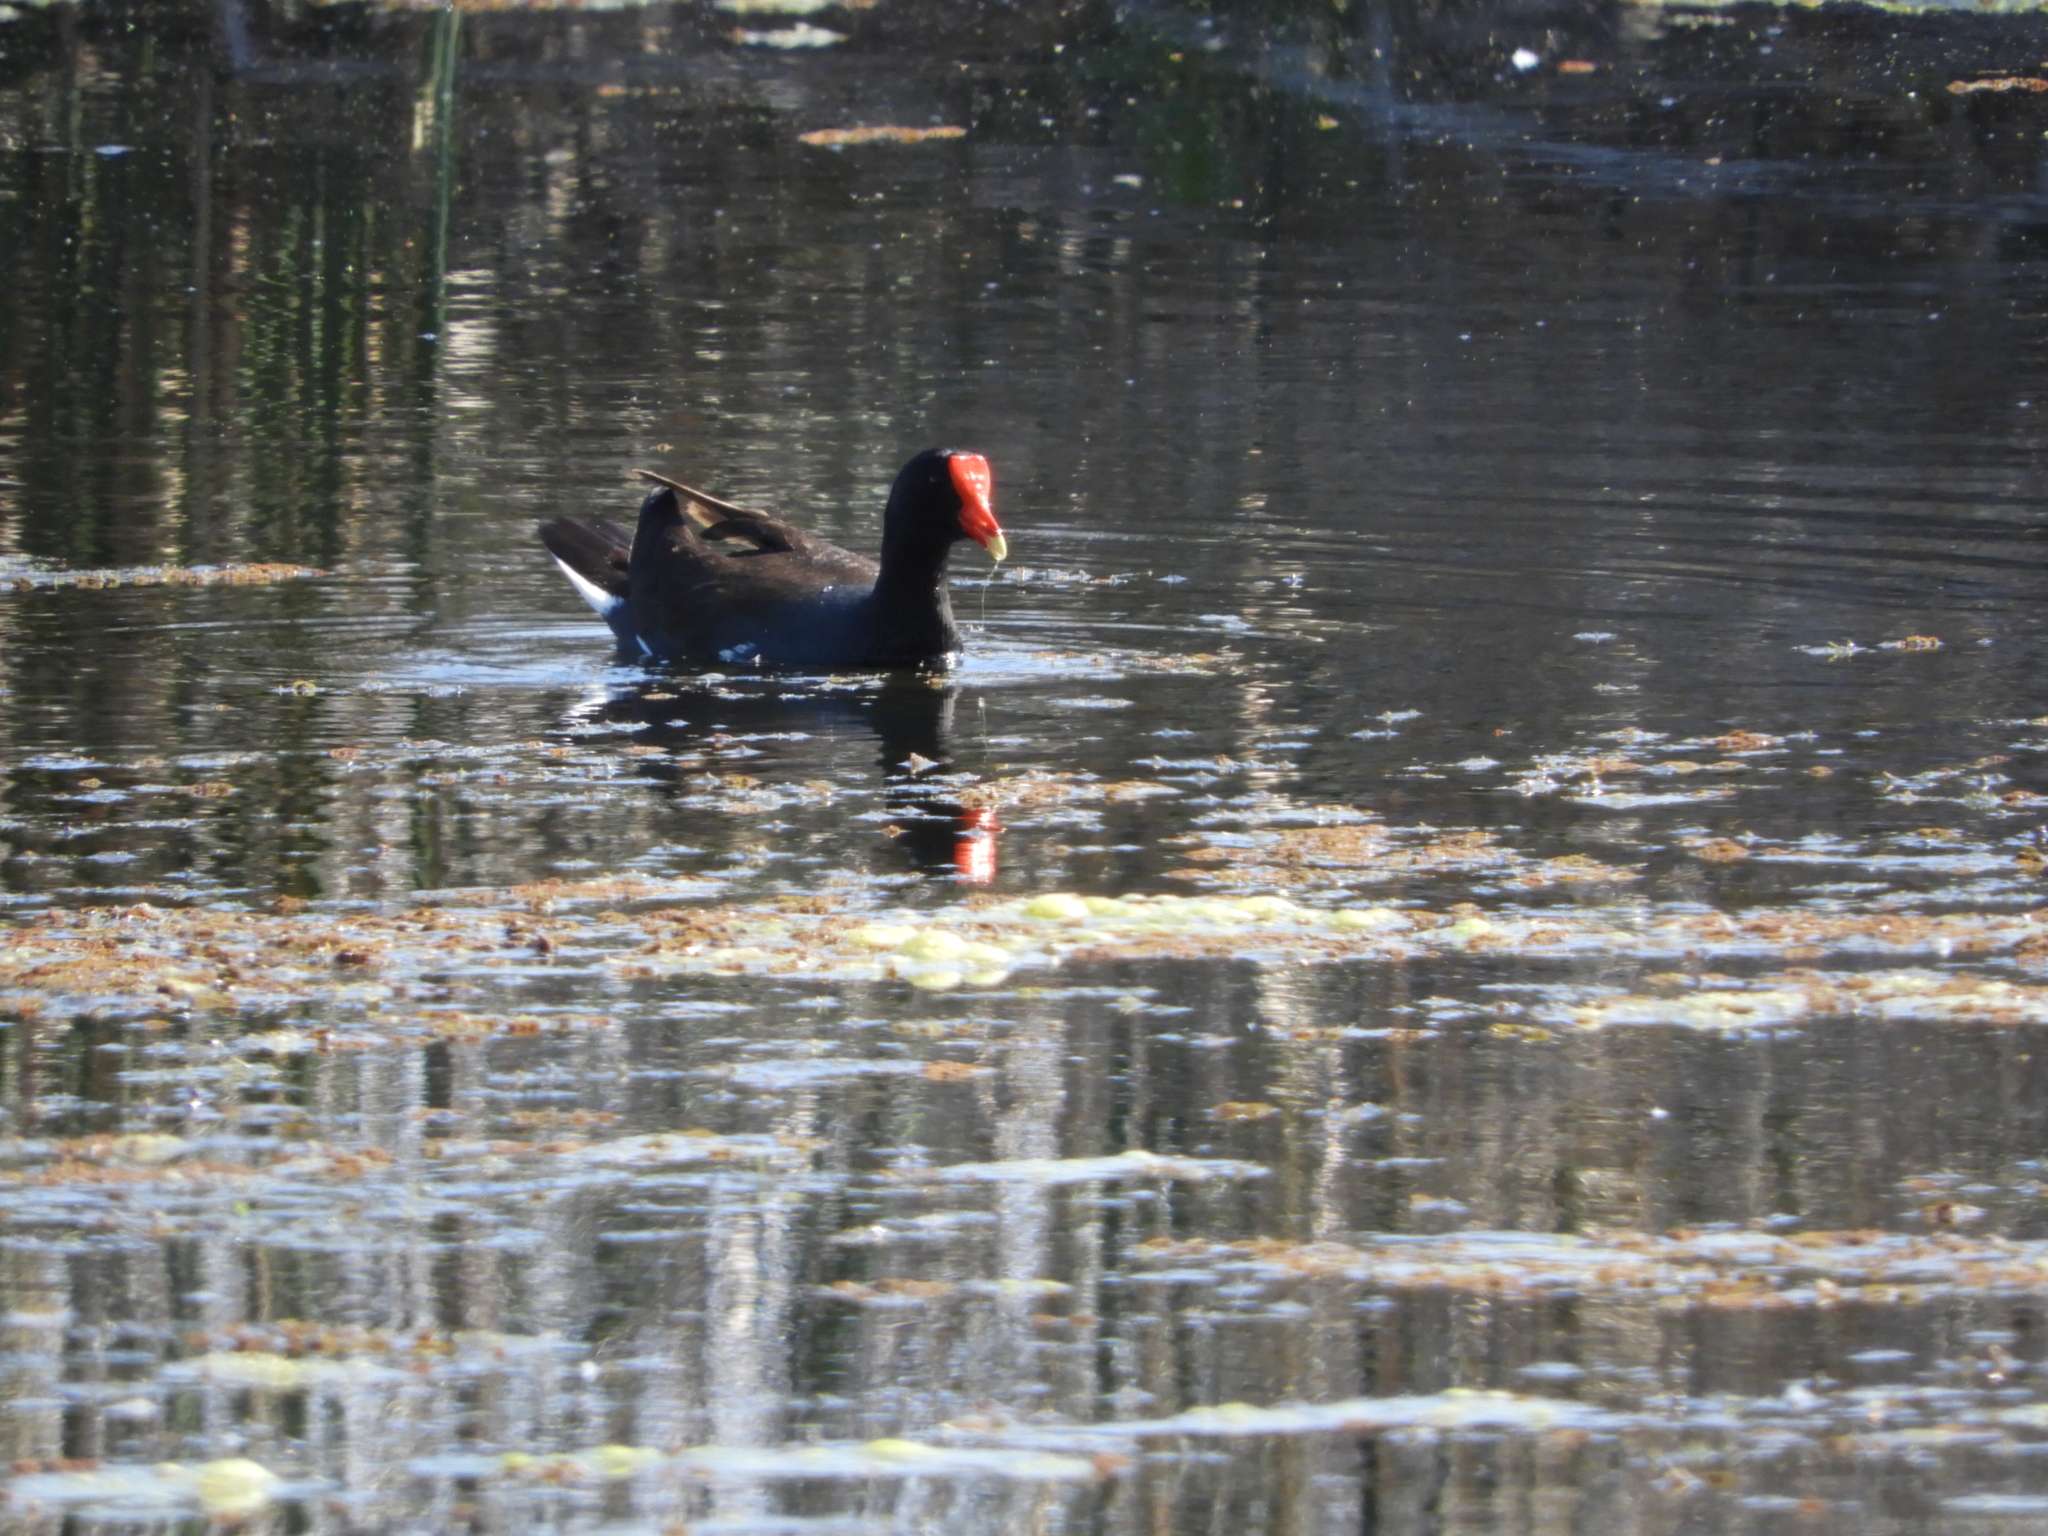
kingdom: Animalia
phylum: Chordata
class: Aves
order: Gruiformes
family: Rallidae
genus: Gallinula
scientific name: Gallinula chloropus
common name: Common moorhen
